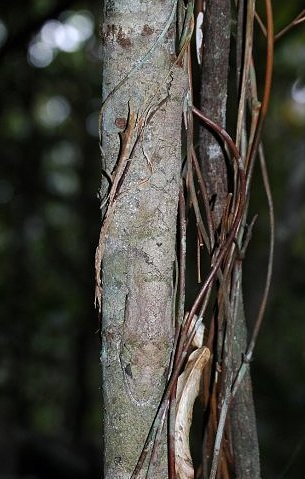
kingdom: Animalia
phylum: Chordata
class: Squamata
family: Gekkonidae
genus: Uroplatus
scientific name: Uroplatus sikorae
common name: Southern flat-tail gecko
